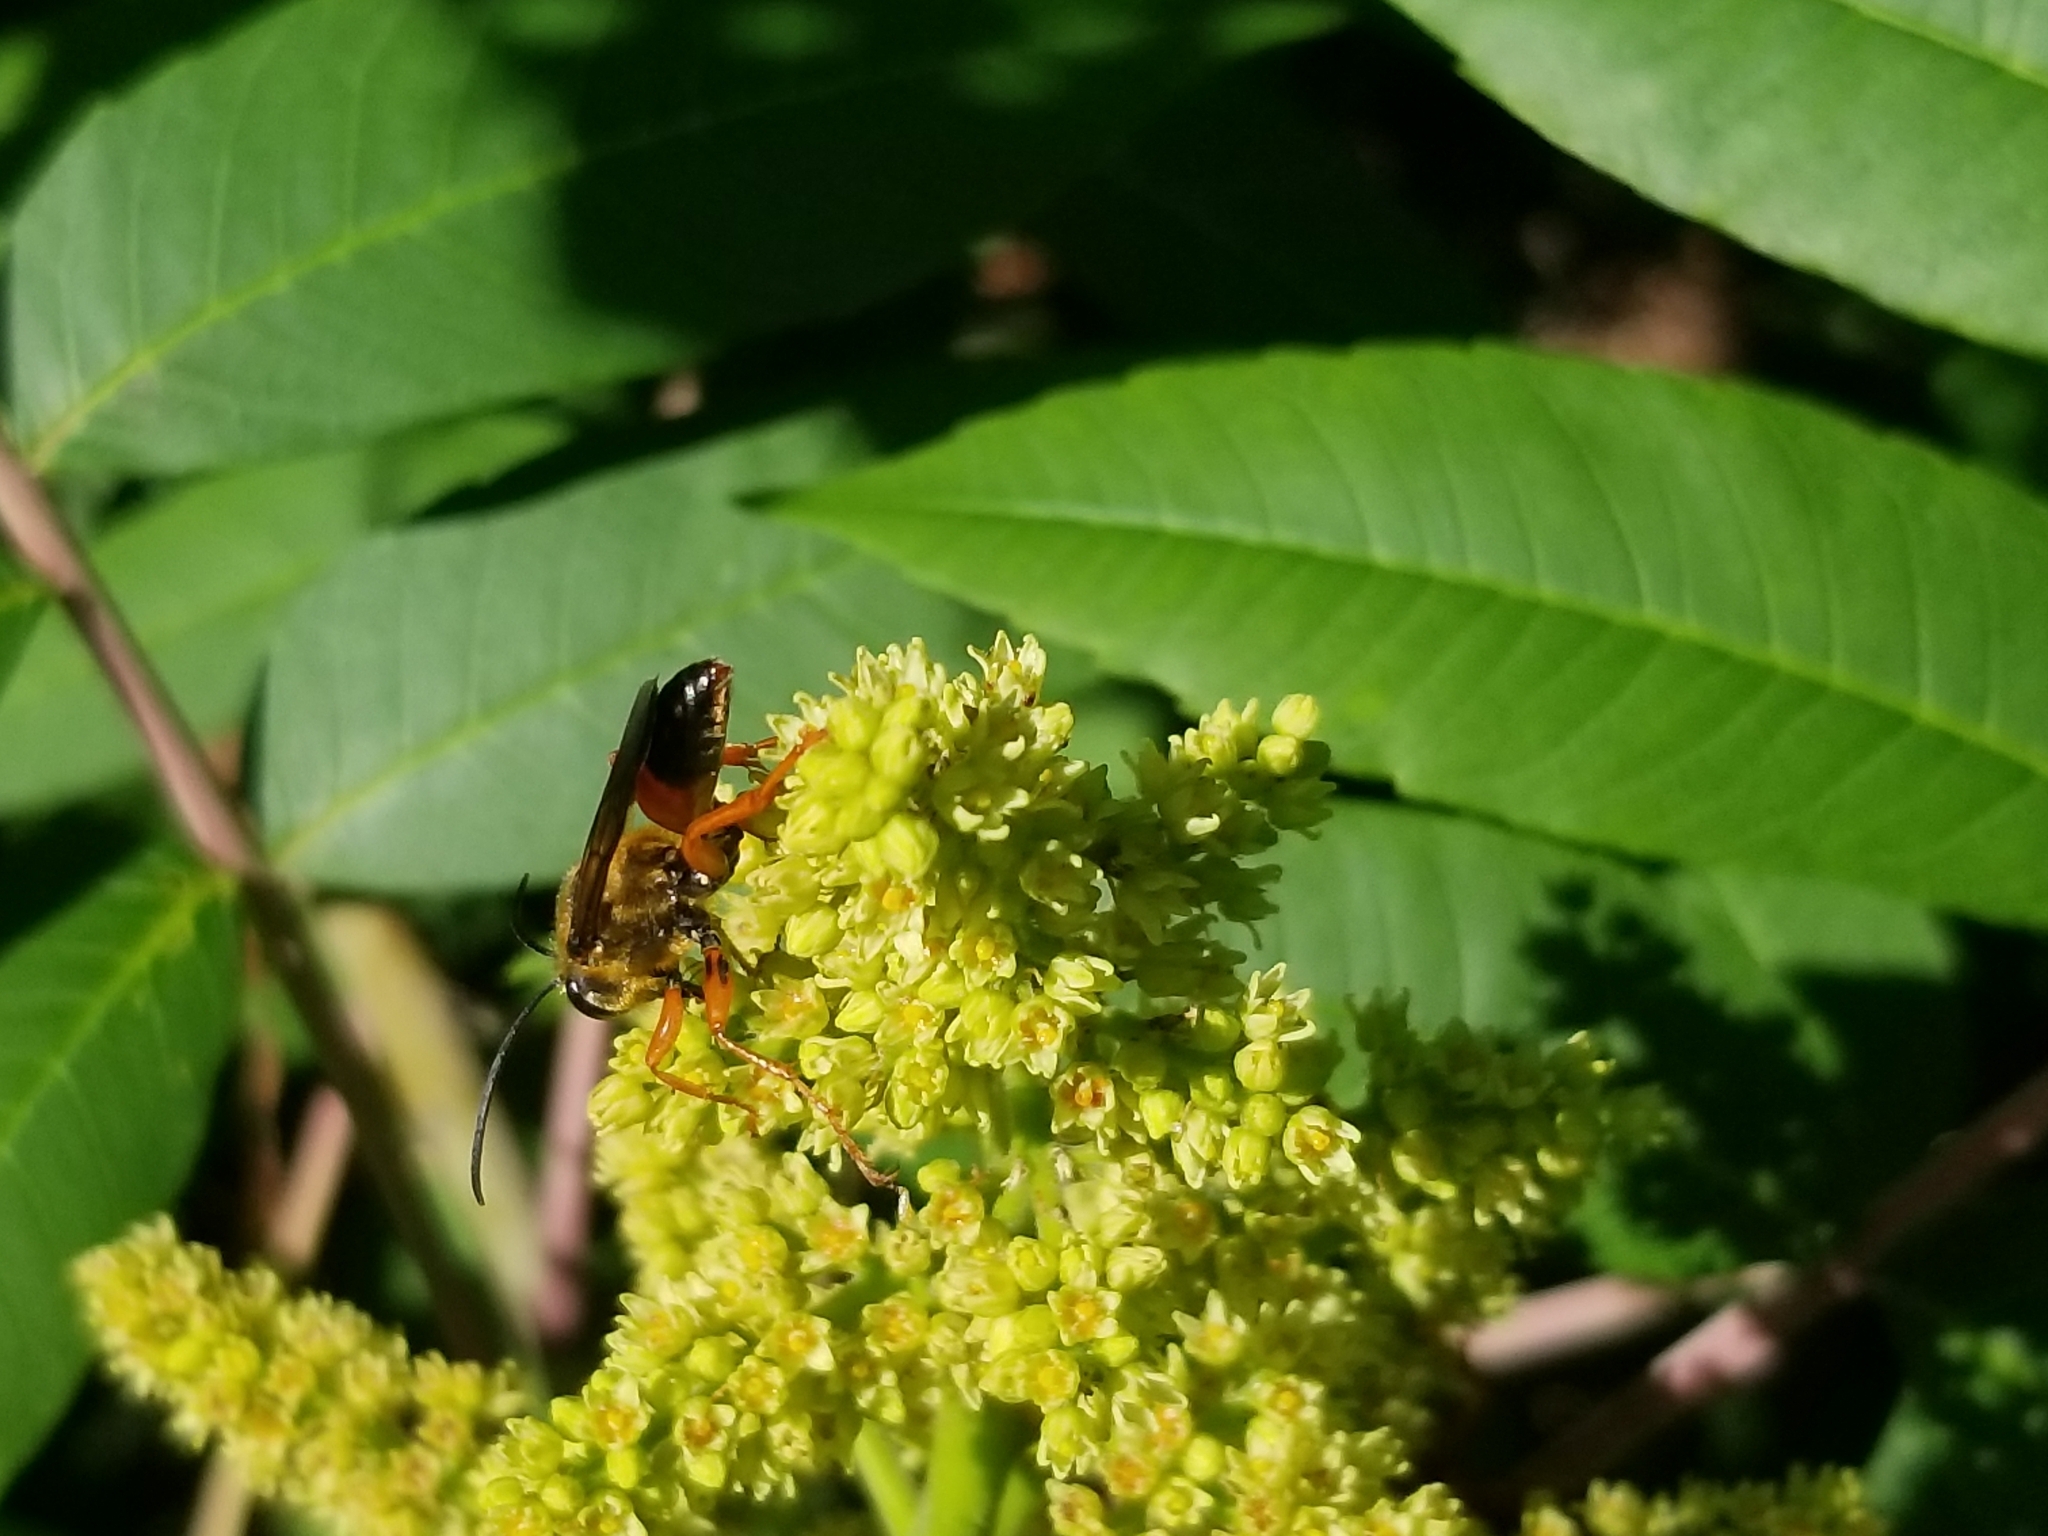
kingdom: Animalia
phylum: Arthropoda
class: Insecta
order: Hymenoptera
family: Sphecidae
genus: Sphex
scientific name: Sphex ichneumoneus
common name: Great golden digger wasp
